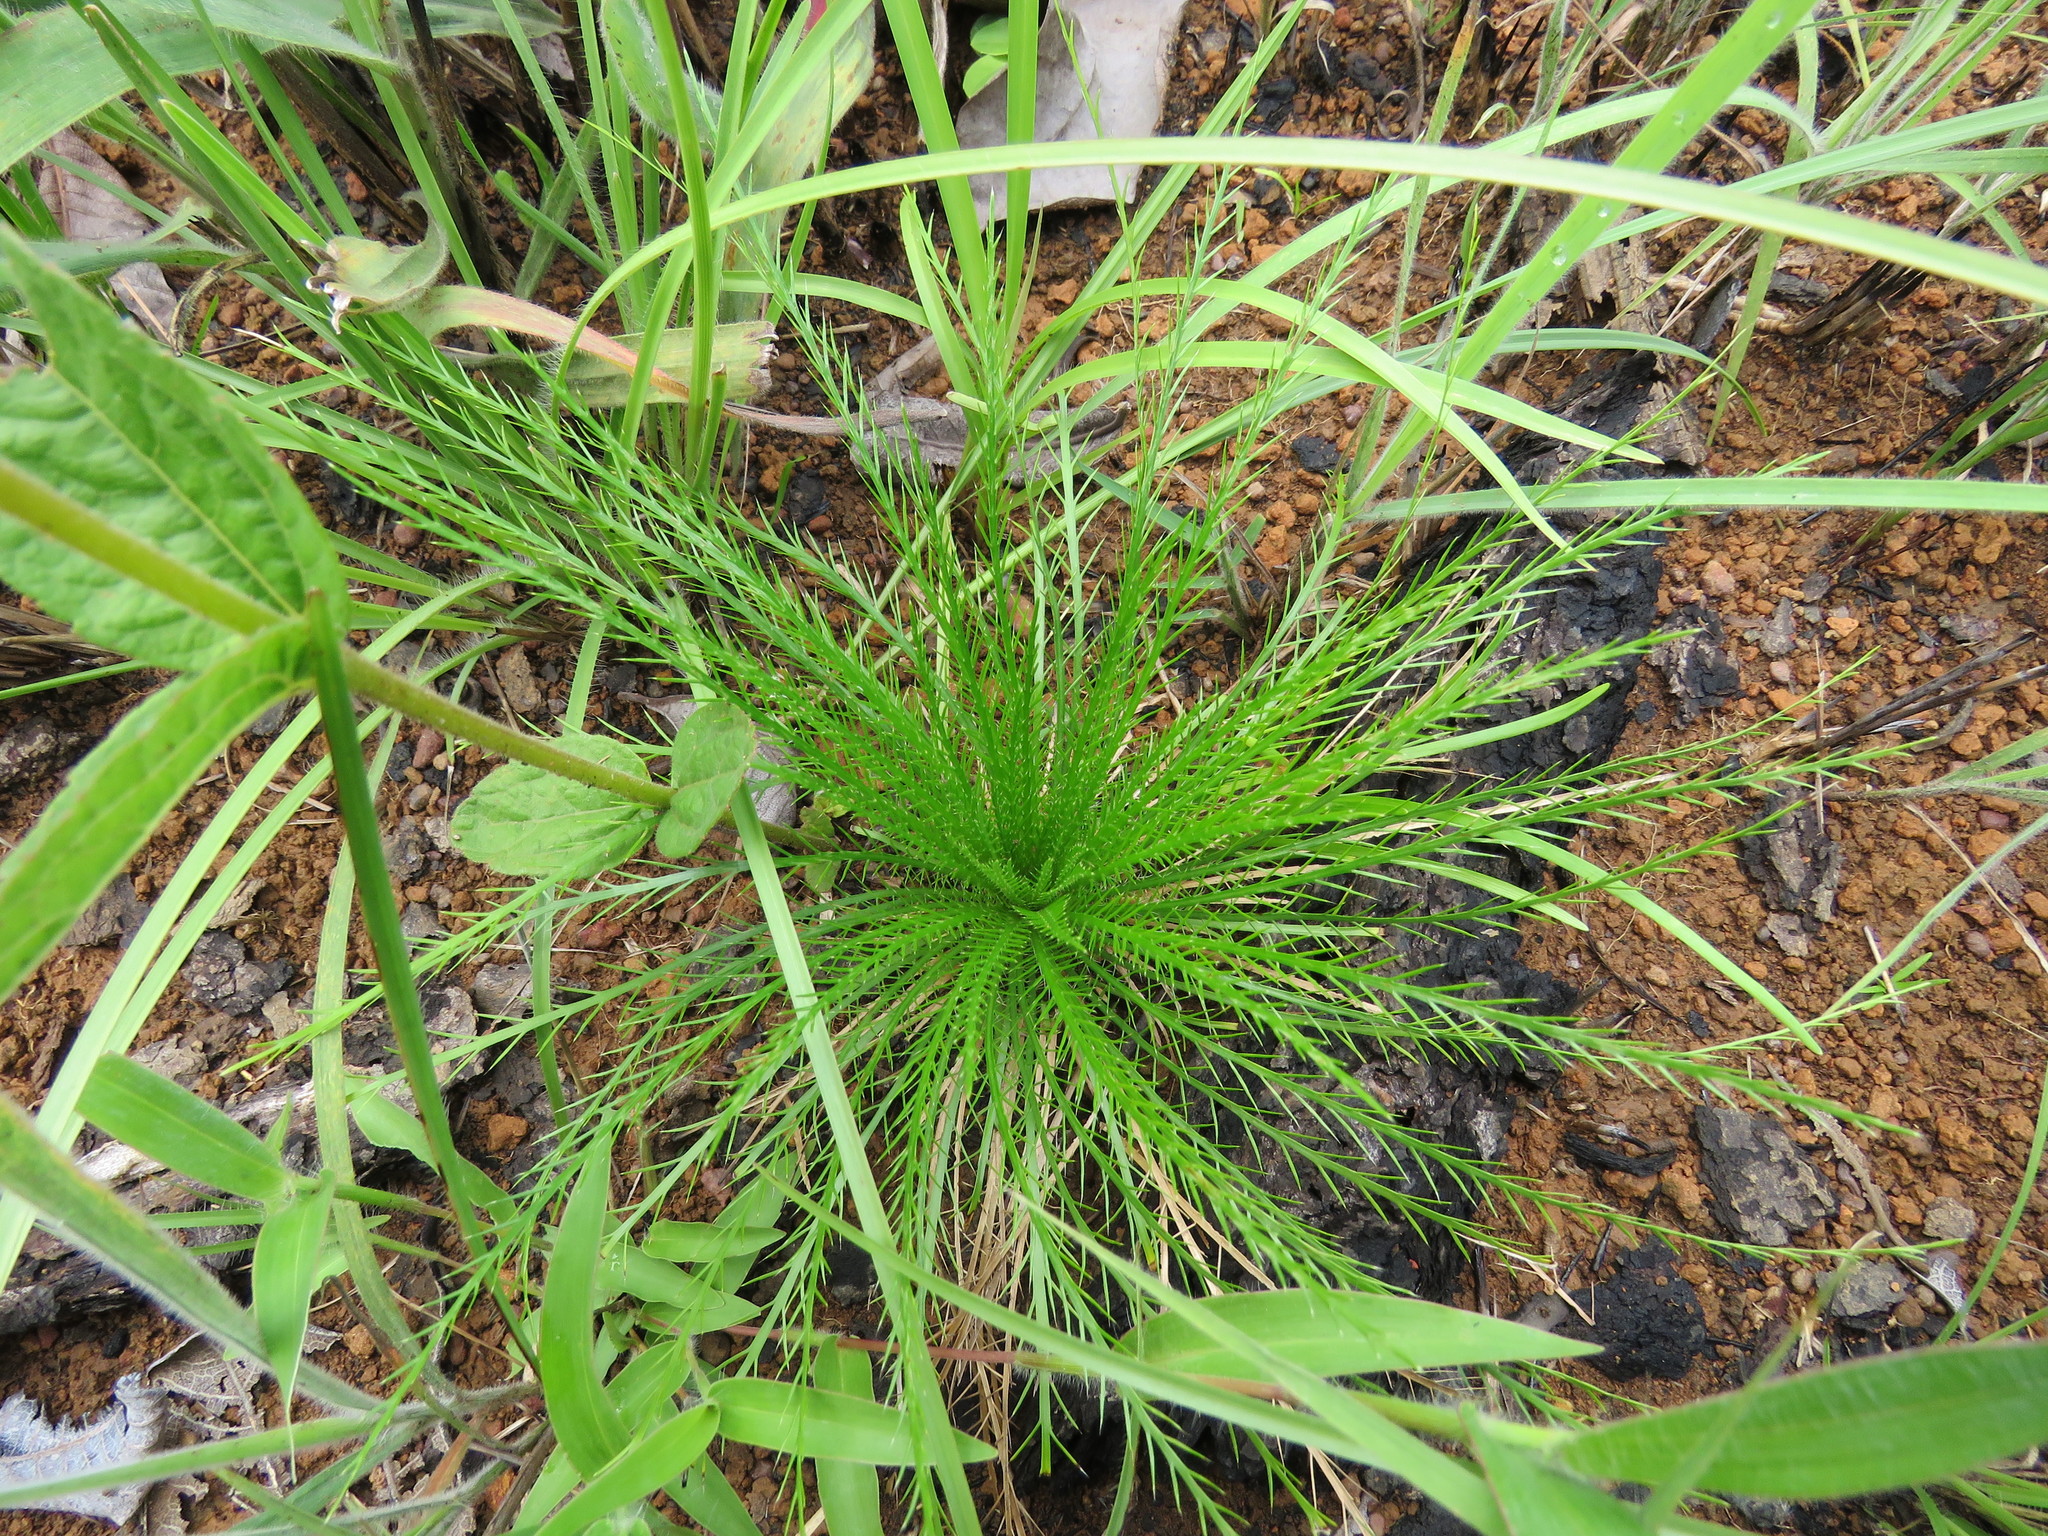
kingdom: Plantae
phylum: Tracheophyta
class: Magnoliopsida
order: Apiales
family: Apiaceae
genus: Eryngium
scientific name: Eryngium pristis
